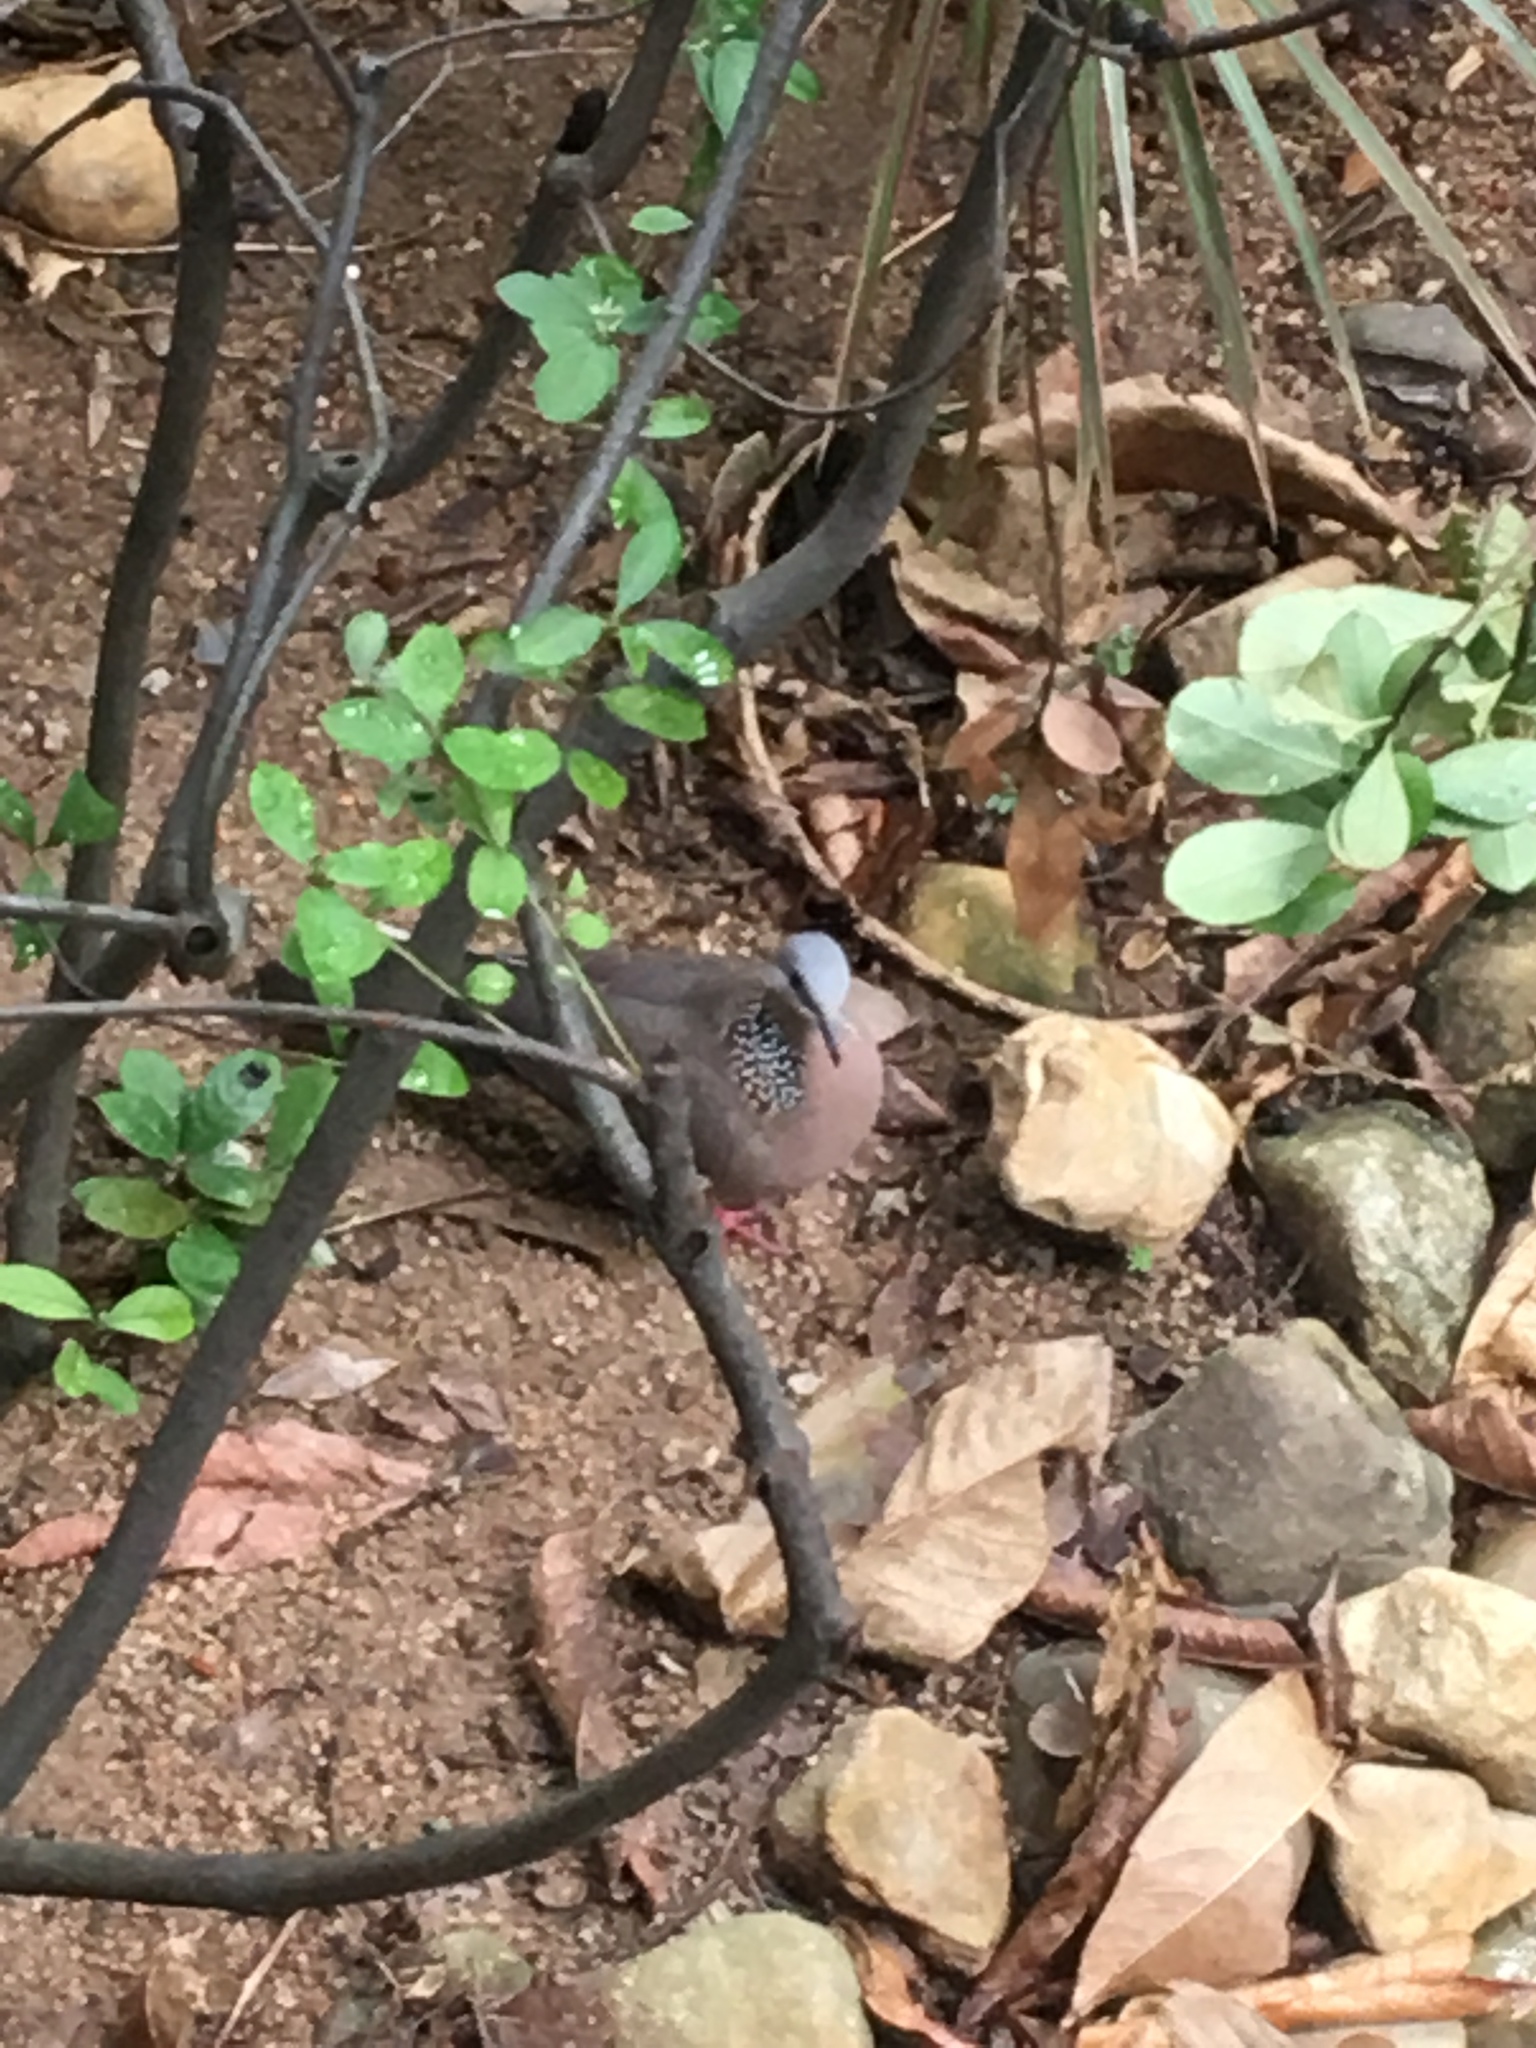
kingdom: Animalia
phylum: Chordata
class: Aves
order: Columbiformes
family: Columbidae
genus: Spilopelia
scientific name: Spilopelia chinensis
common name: Spotted dove
